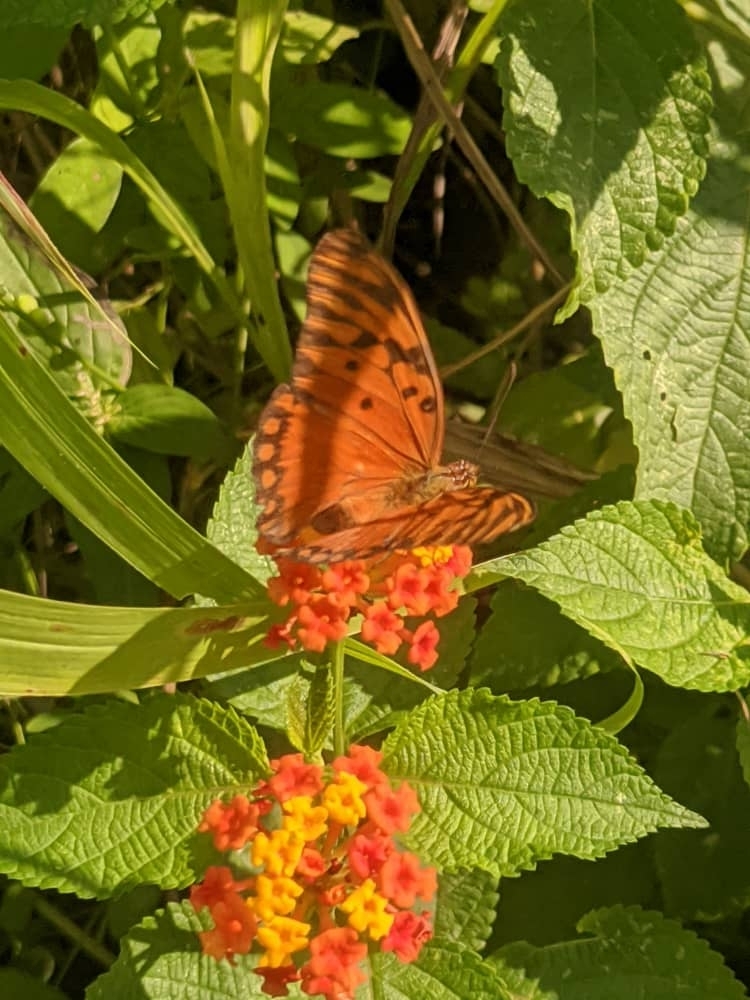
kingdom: Animalia
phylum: Arthropoda
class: Insecta
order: Lepidoptera
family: Nymphalidae
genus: Dione
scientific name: Dione vanillae
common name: Gulf fritillary
